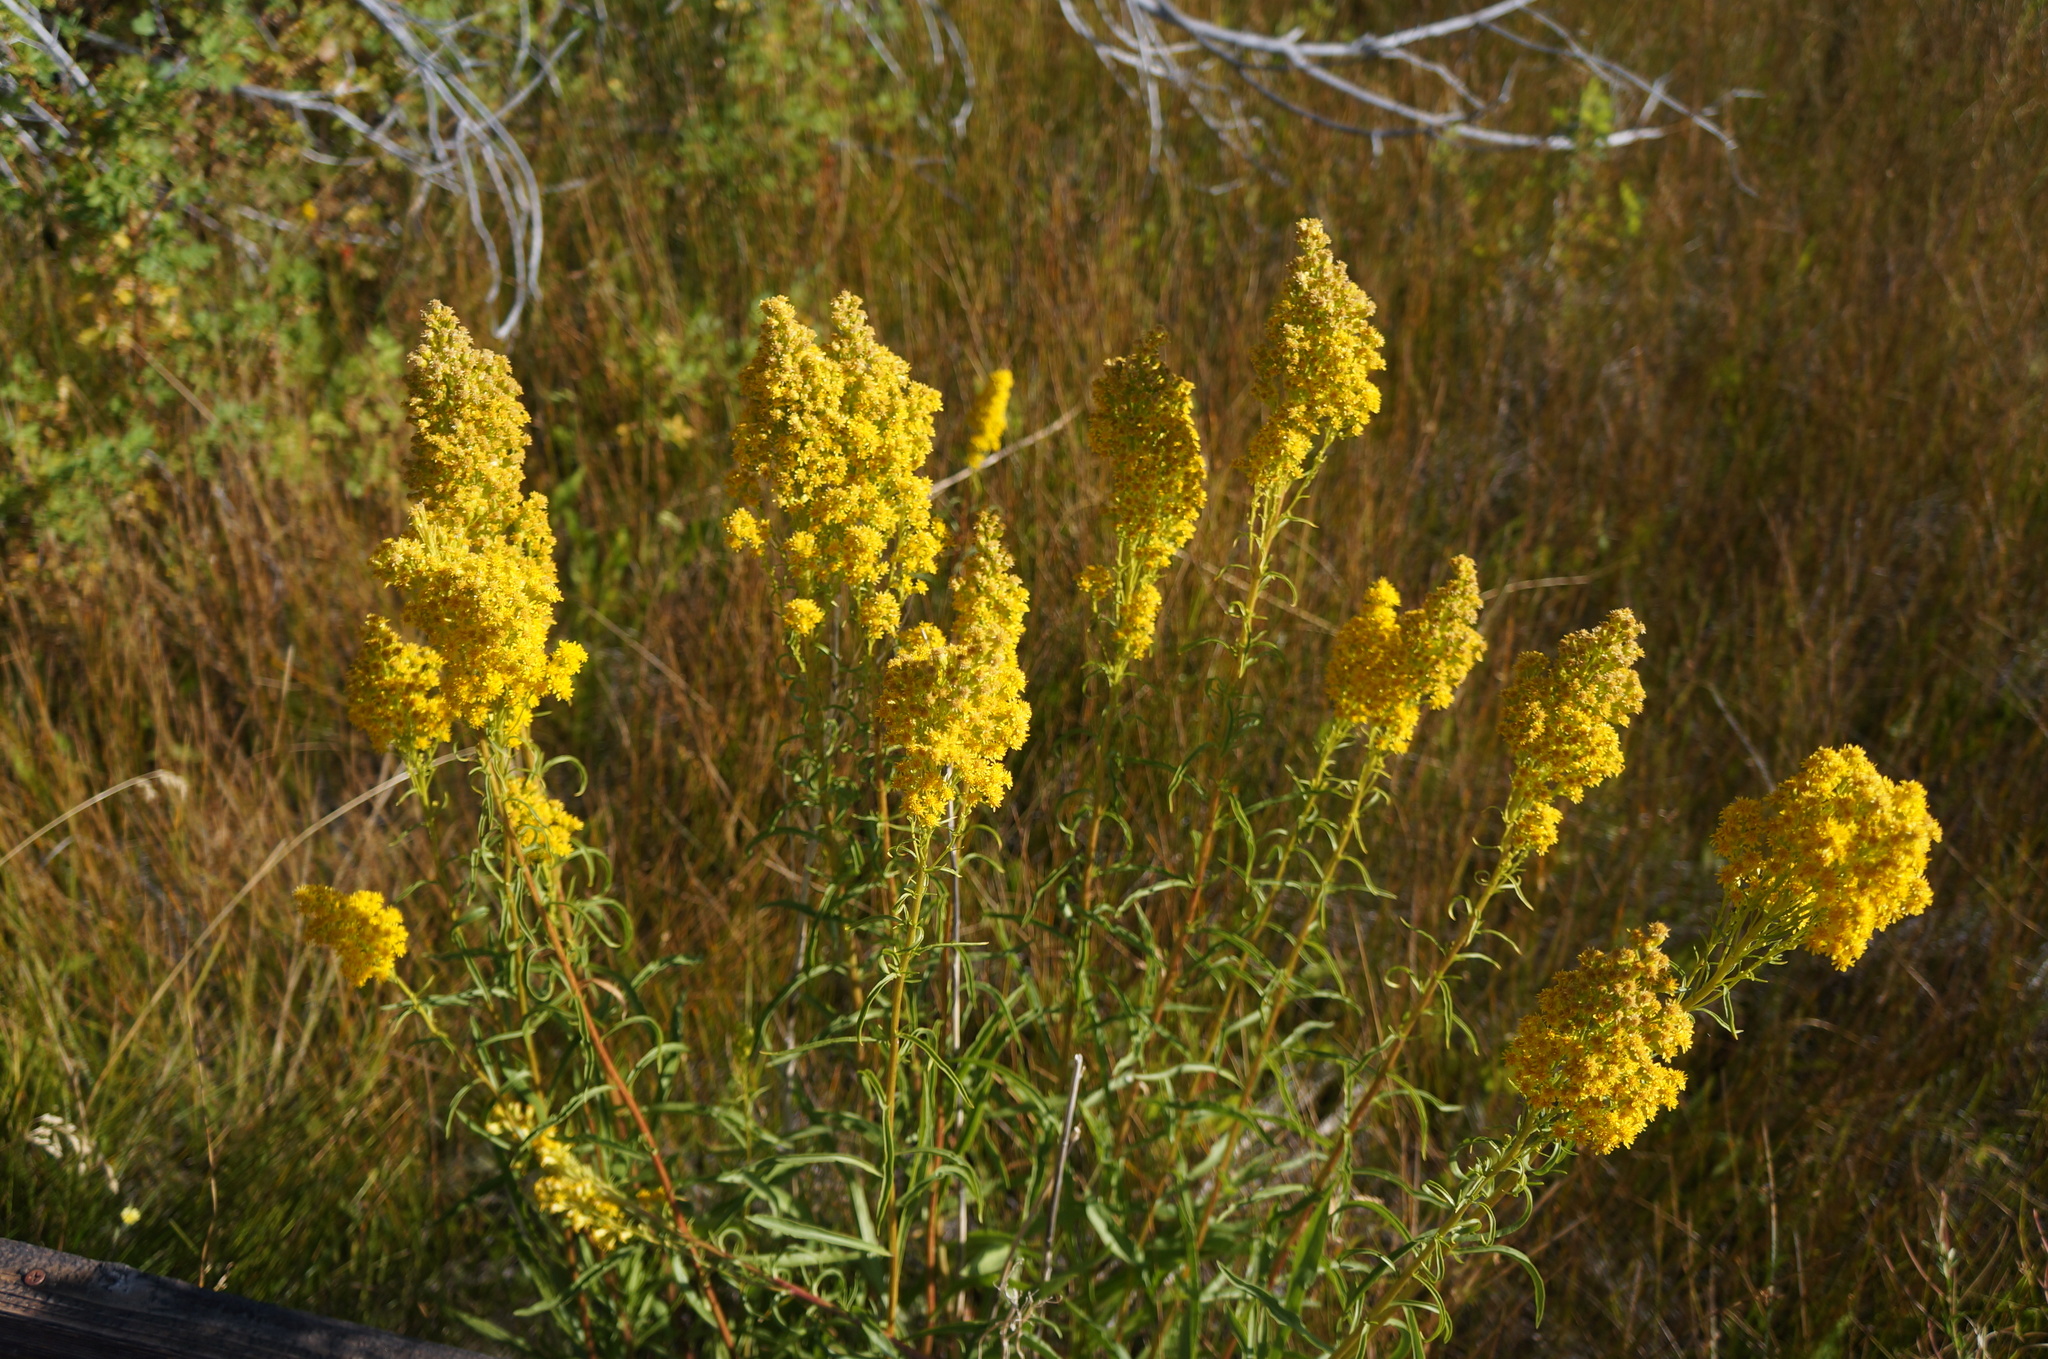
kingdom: Plantae
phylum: Tracheophyta
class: Magnoliopsida
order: Asterales
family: Asteraceae
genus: Solidago
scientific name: Solidago spectabilis
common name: Basin goldenrod
